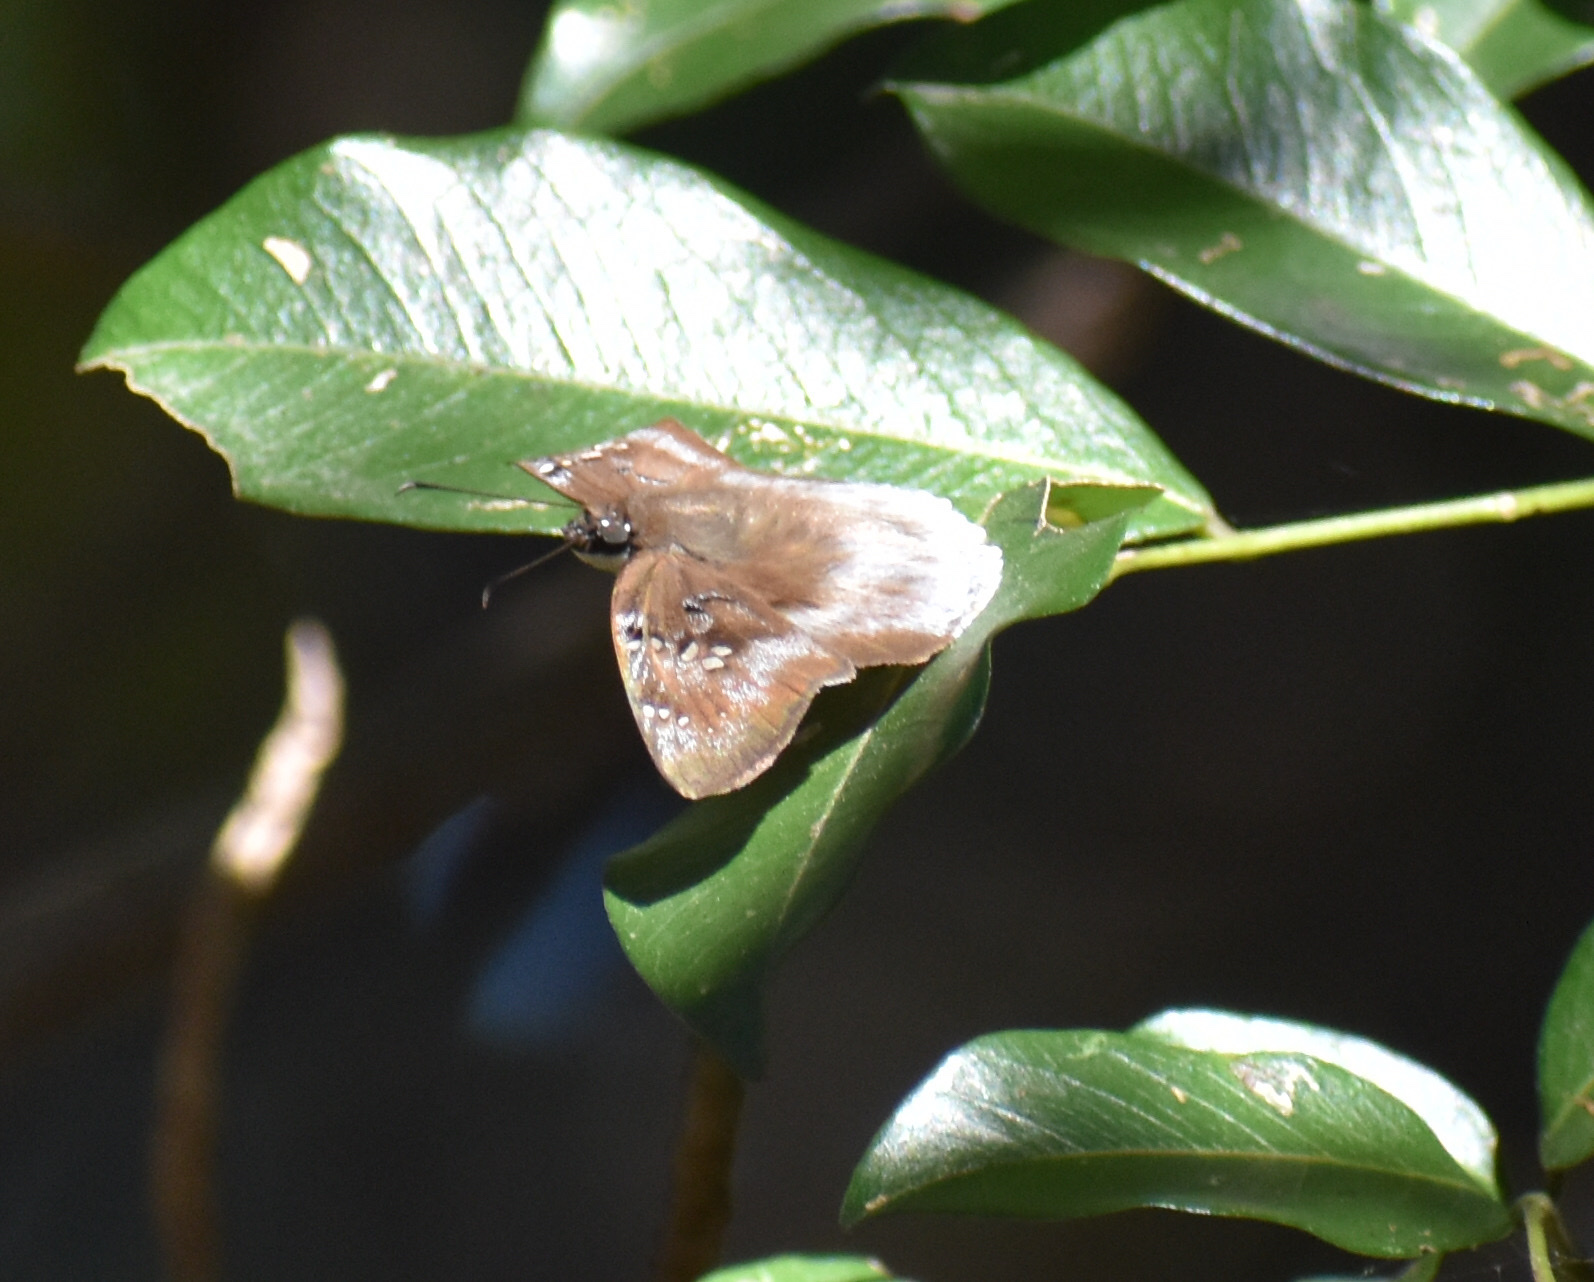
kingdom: Animalia
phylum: Arthropoda
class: Insecta
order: Lepidoptera
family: Hesperiidae
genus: Tagiades
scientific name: Tagiades flesus
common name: Clouded flat
